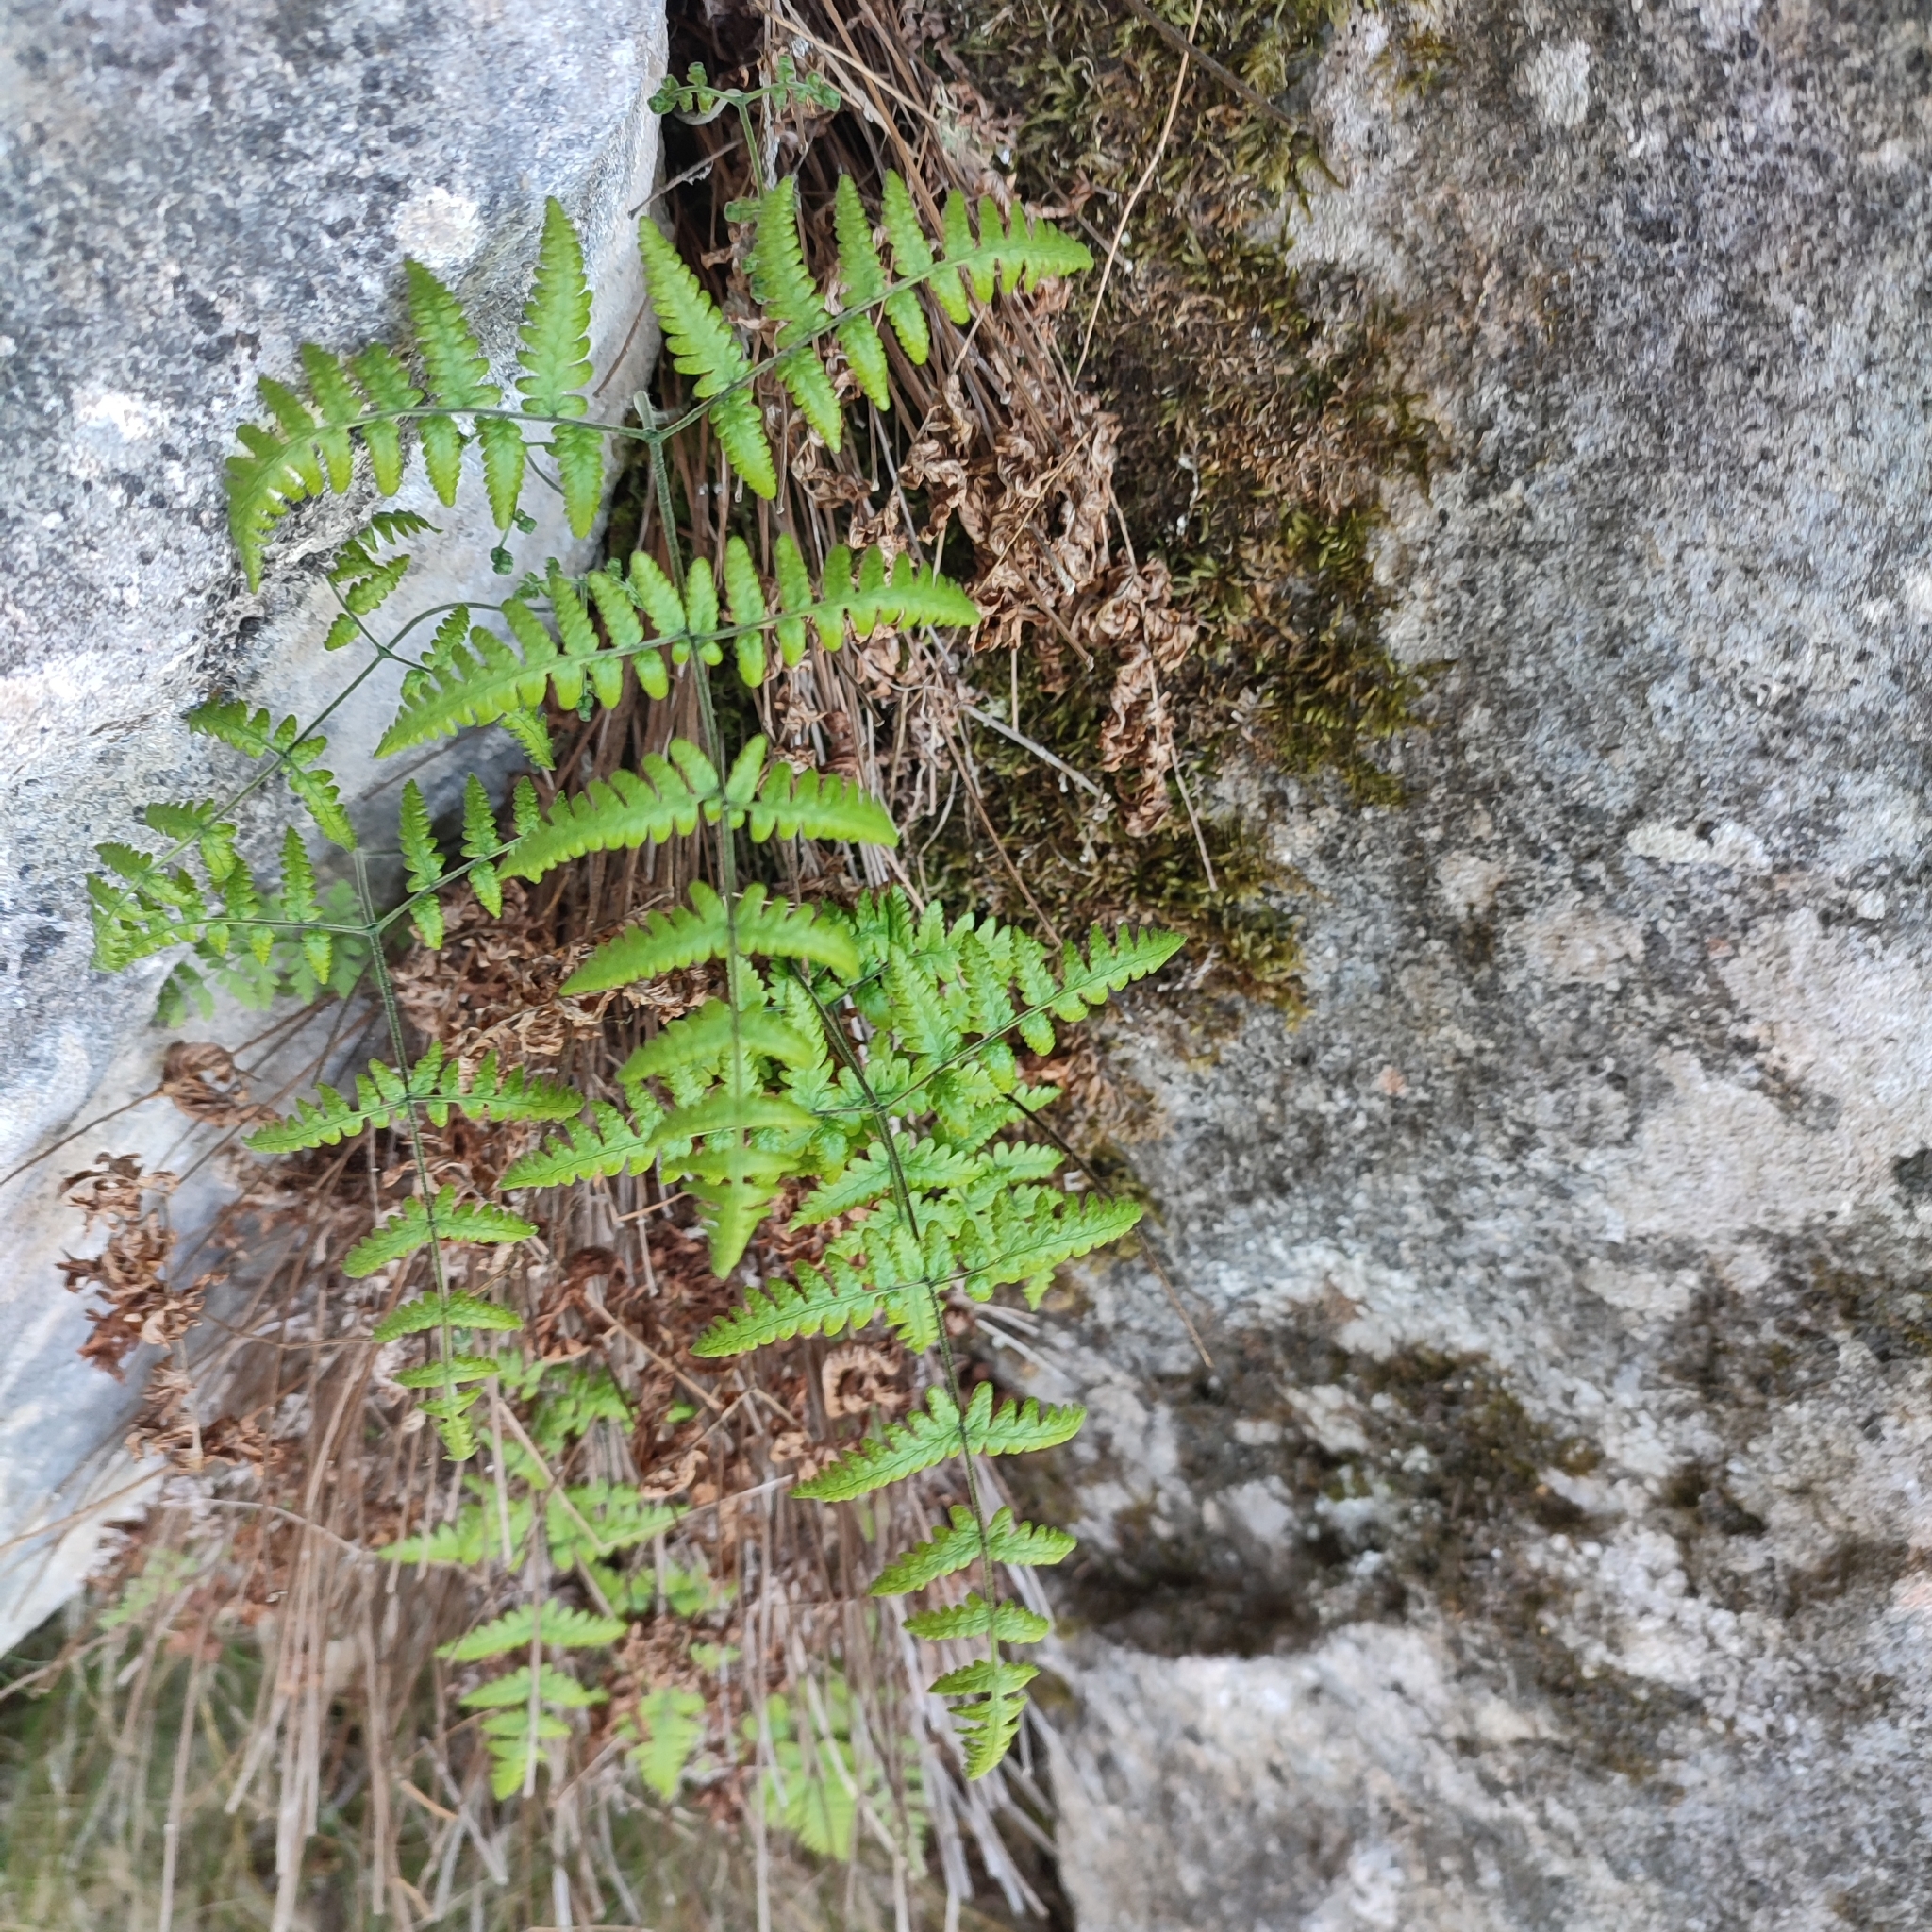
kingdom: Plantae
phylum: Tracheophyta
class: Polypodiopsida
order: Polypodiales
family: Cystopteridaceae
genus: Gymnocarpium
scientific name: Gymnocarpium robertianum
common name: Limestone fern
